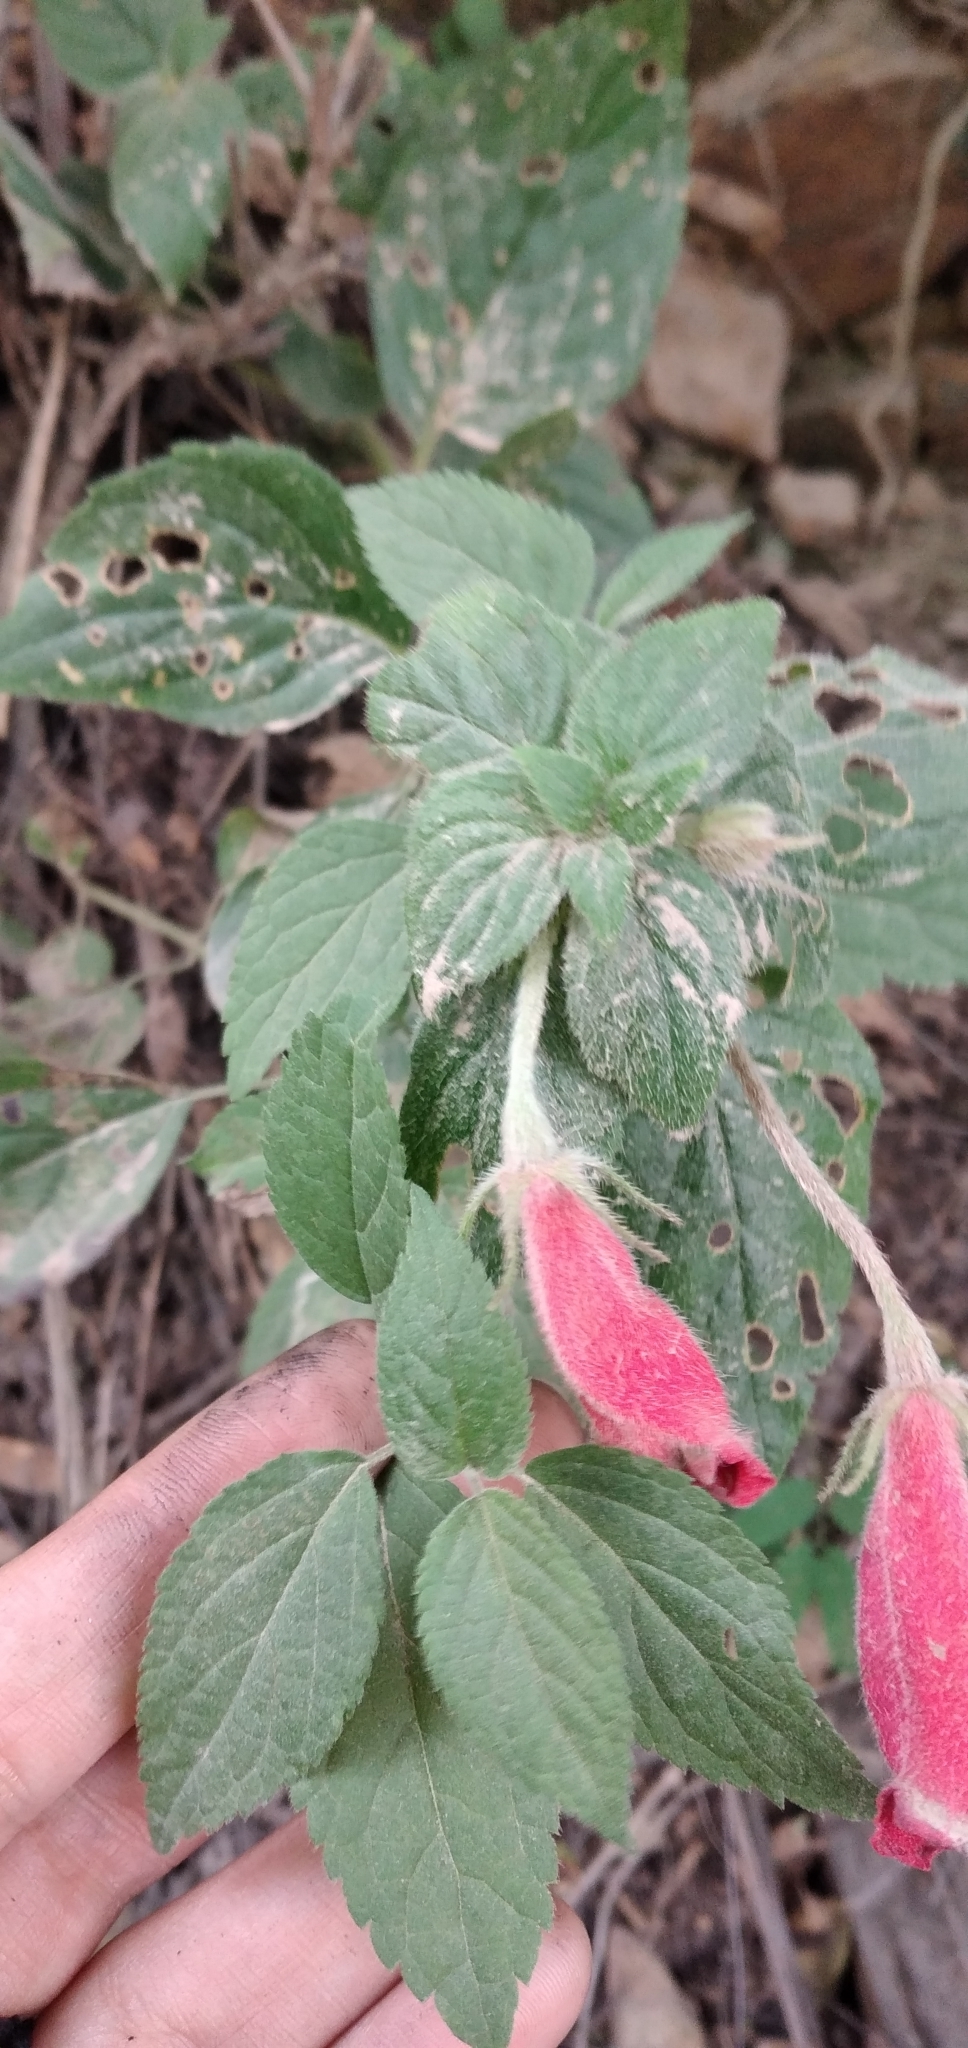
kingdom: Plantae
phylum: Tracheophyta
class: Magnoliopsida
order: Lamiales
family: Gesneriaceae
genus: Seemannia
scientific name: Seemannia nematanthodes
